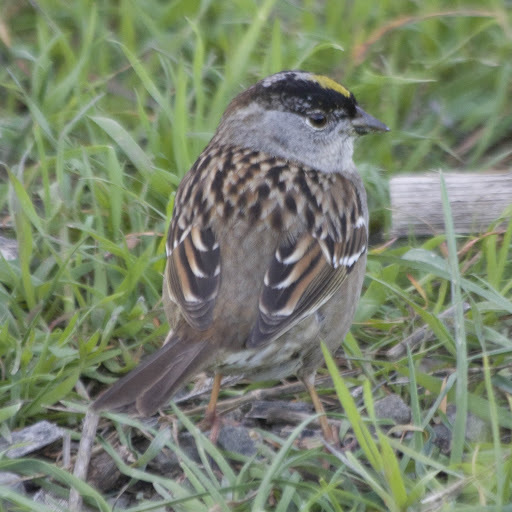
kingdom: Animalia
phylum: Chordata
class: Aves
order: Passeriformes
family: Passerellidae
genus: Zonotrichia
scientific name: Zonotrichia atricapilla
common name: Golden-crowned sparrow
